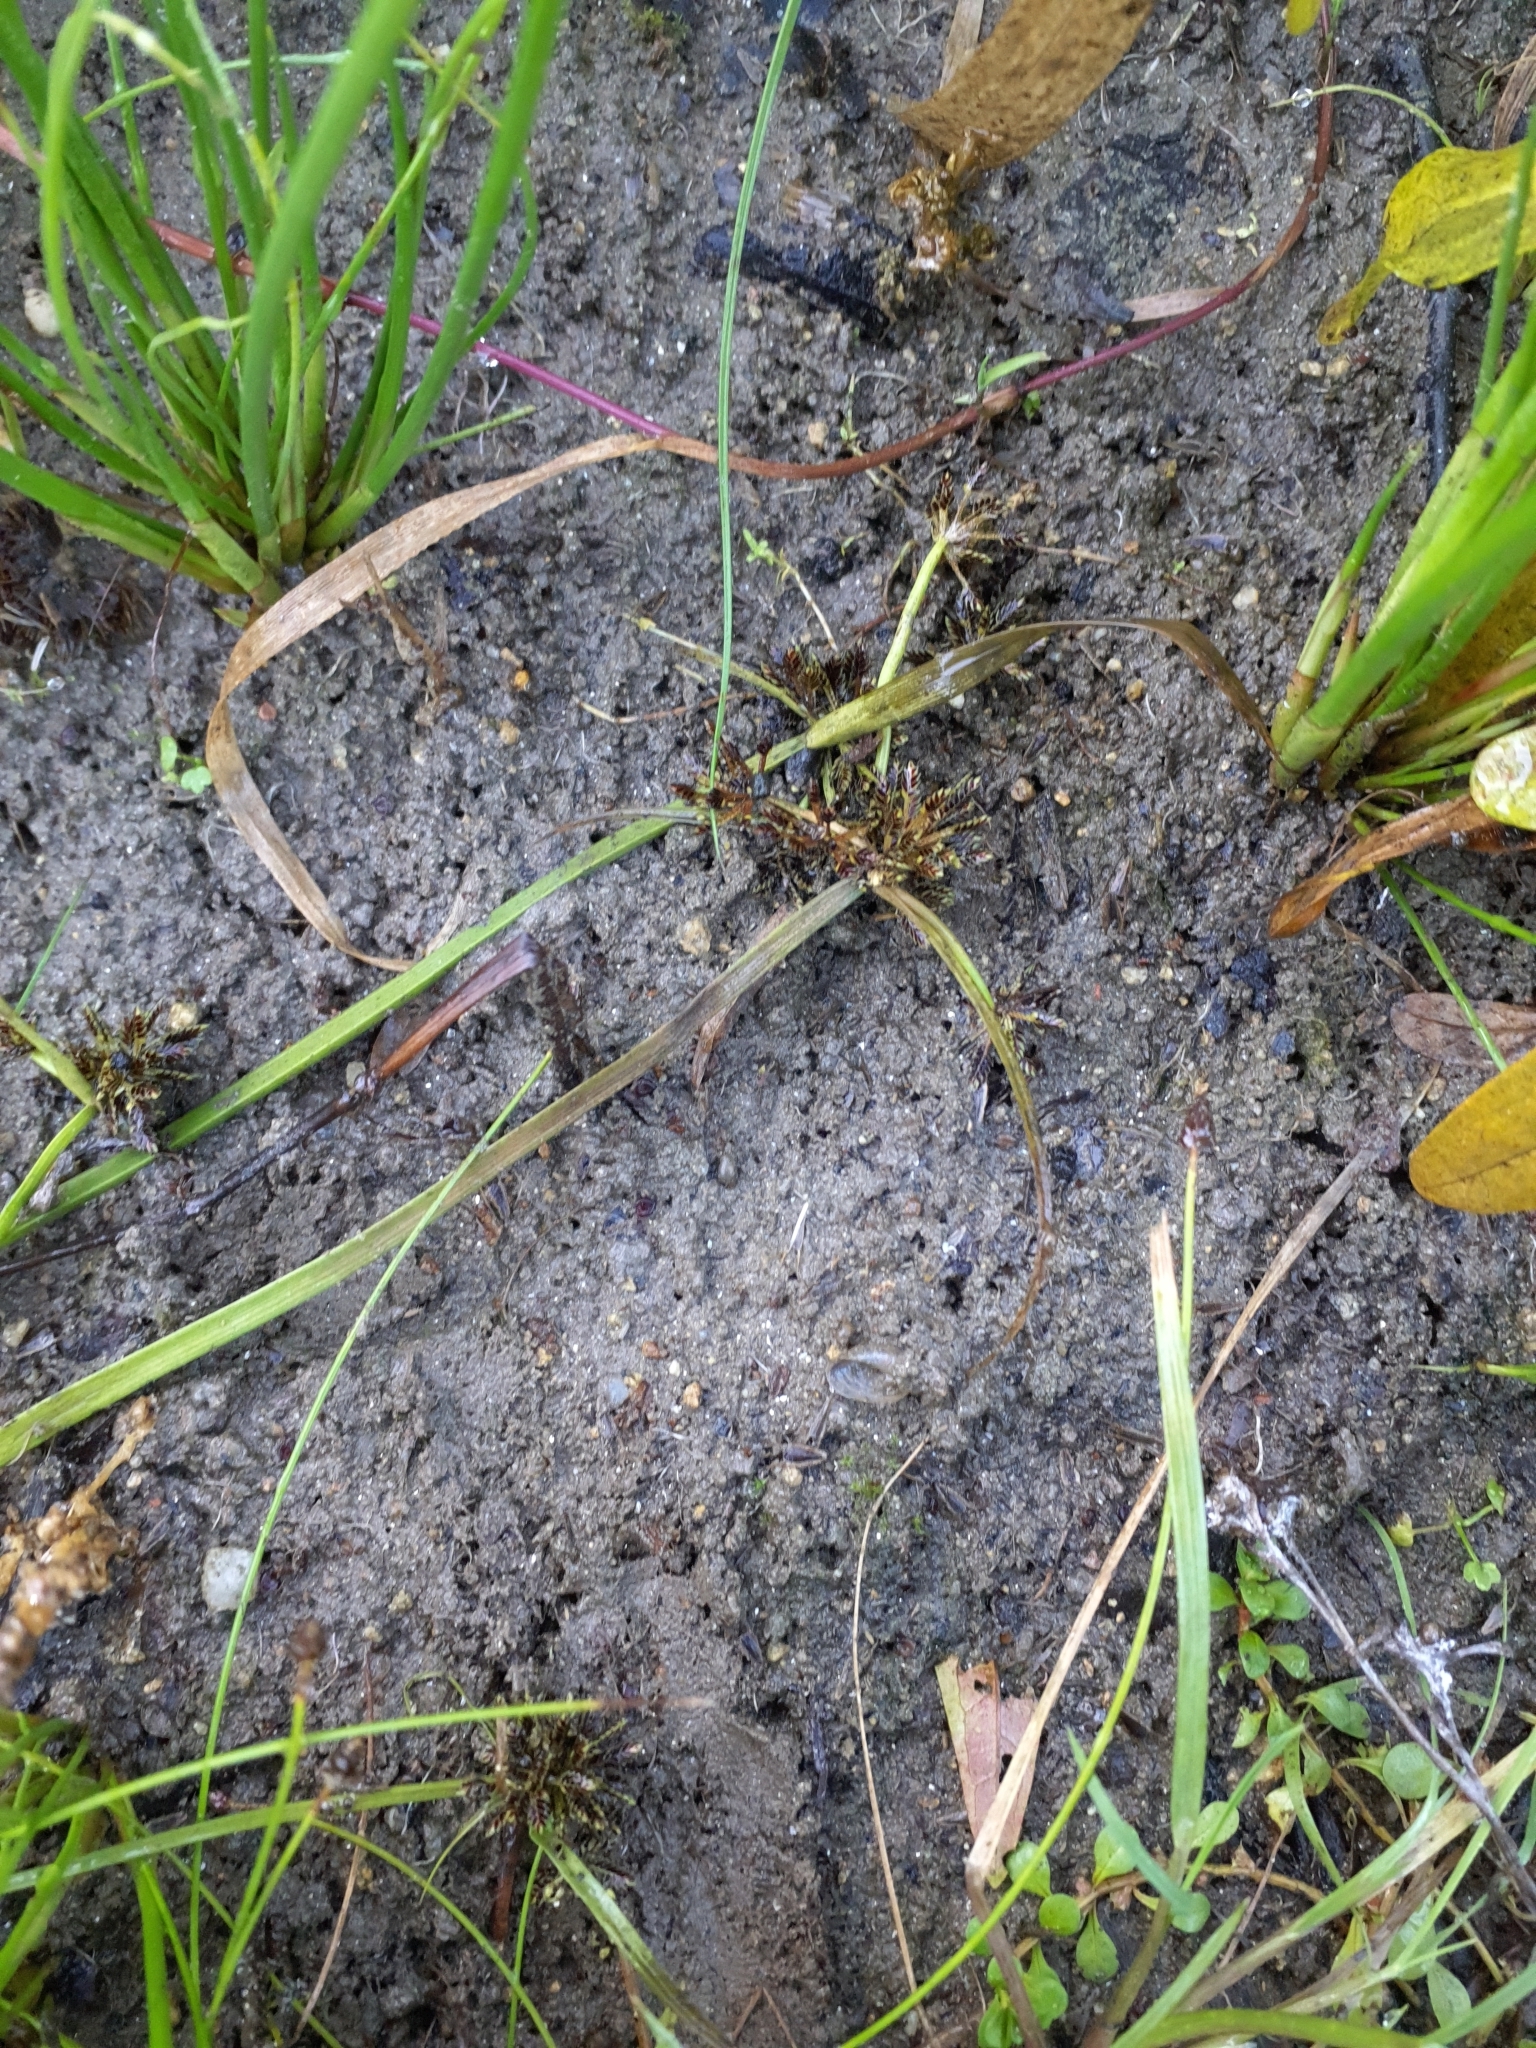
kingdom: Plantae
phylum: Tracheophyta
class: Liliopsida
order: Poales
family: Cyperaceae
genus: Cyperus
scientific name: Cyperus fuscus
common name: Brown galingale
